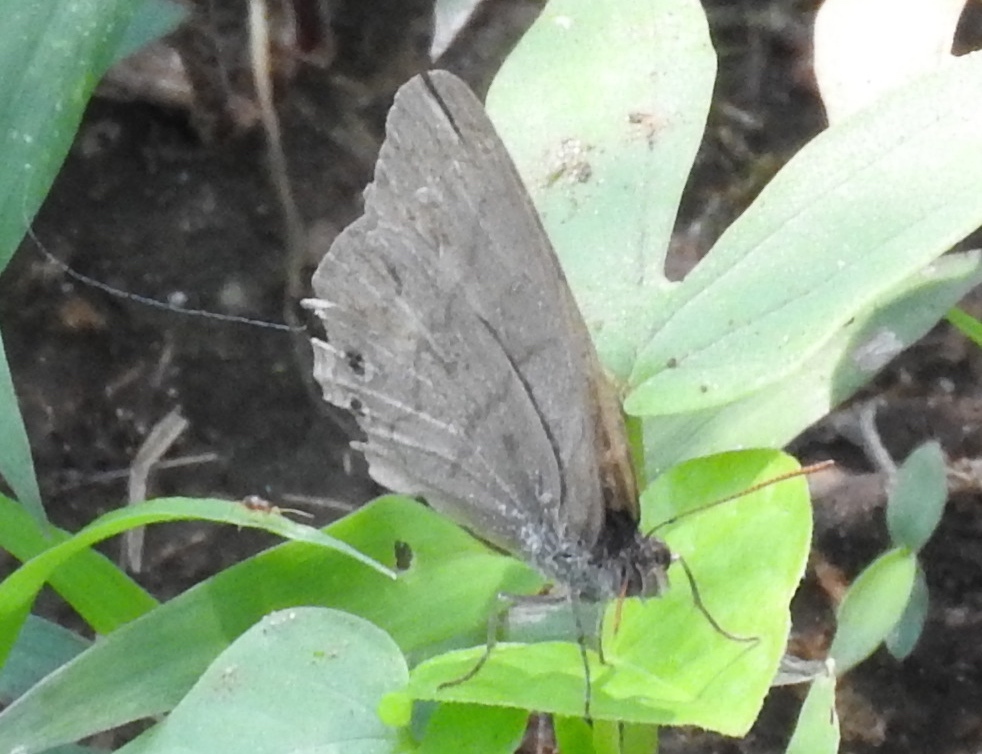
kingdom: Animalia
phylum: Arthropoda
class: Insecta
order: Lepidoptera
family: Satyridae
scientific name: Satyridae
